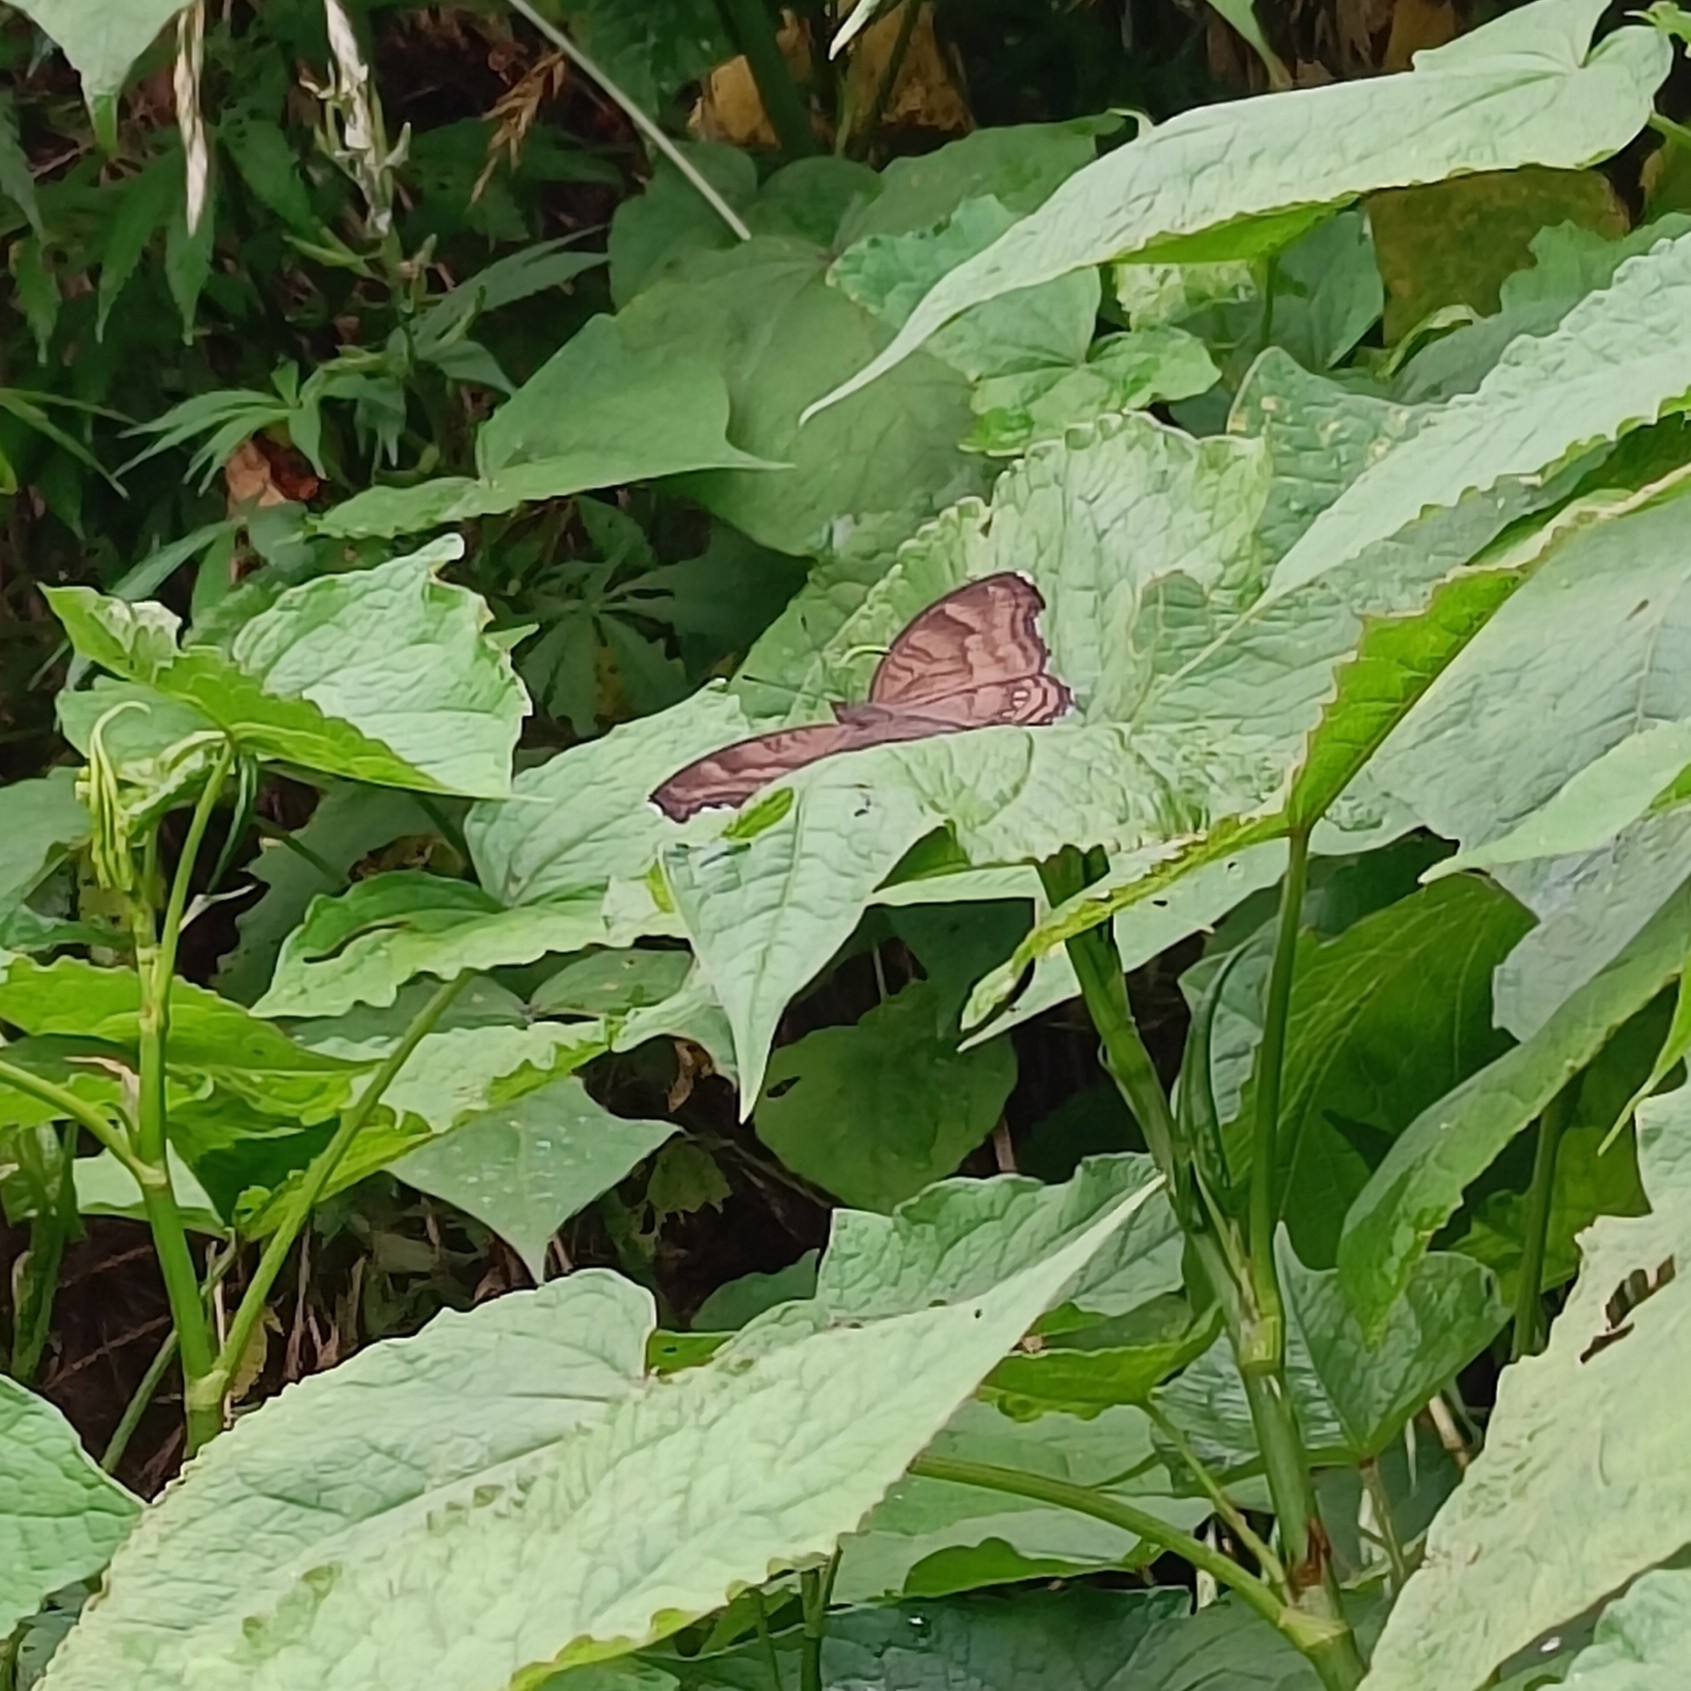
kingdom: Animalia
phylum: Arthropoda
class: Insecta
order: Lepidoptera
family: Nymphalidae
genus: Junonia
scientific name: Junonia iphita
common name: Chocolate pansy
